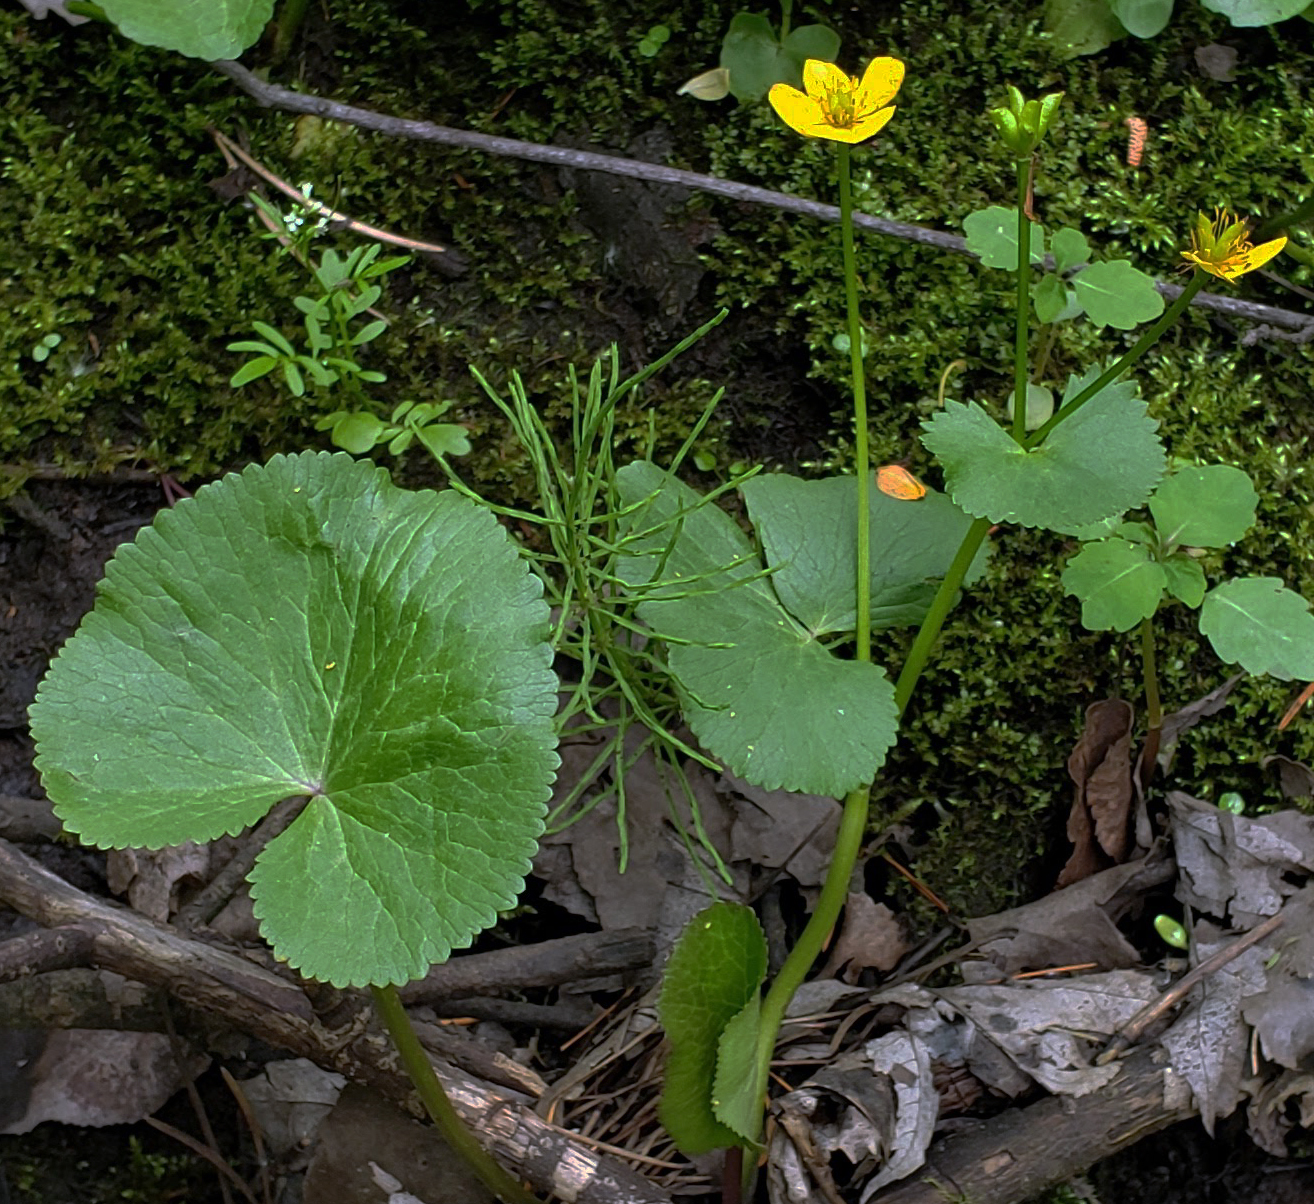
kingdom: Plantae
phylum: Tracheophyta
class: Magnoliopsida
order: Ranunculales
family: Ranunculaceae
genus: Caltha
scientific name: Caltha palustris
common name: Marsh marigold
